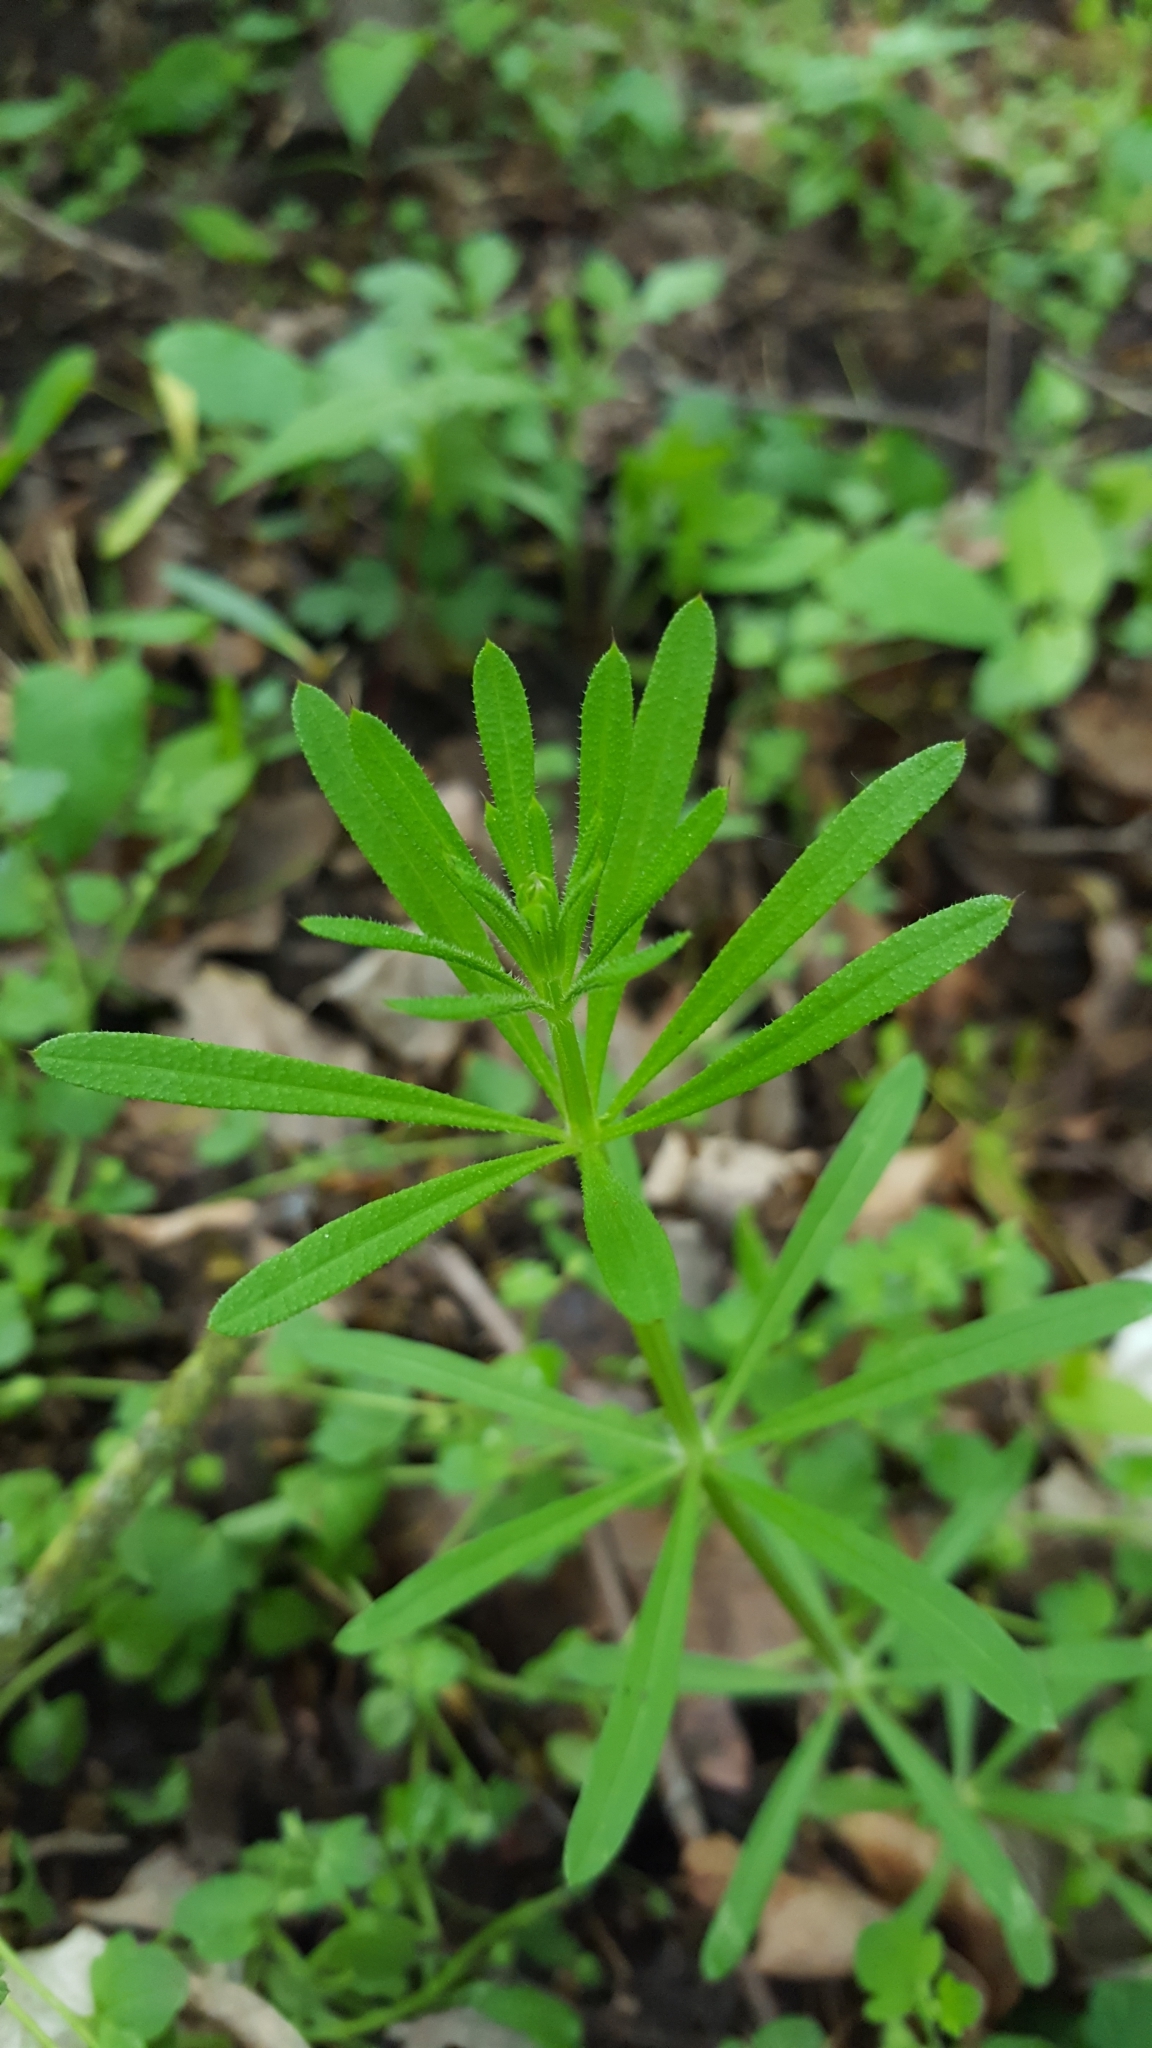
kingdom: Plantae
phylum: Tracheophyta
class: Magnoliopsida
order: Gentianales
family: Rubiaceae
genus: Galium
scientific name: Galium aparine
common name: Cleavers
